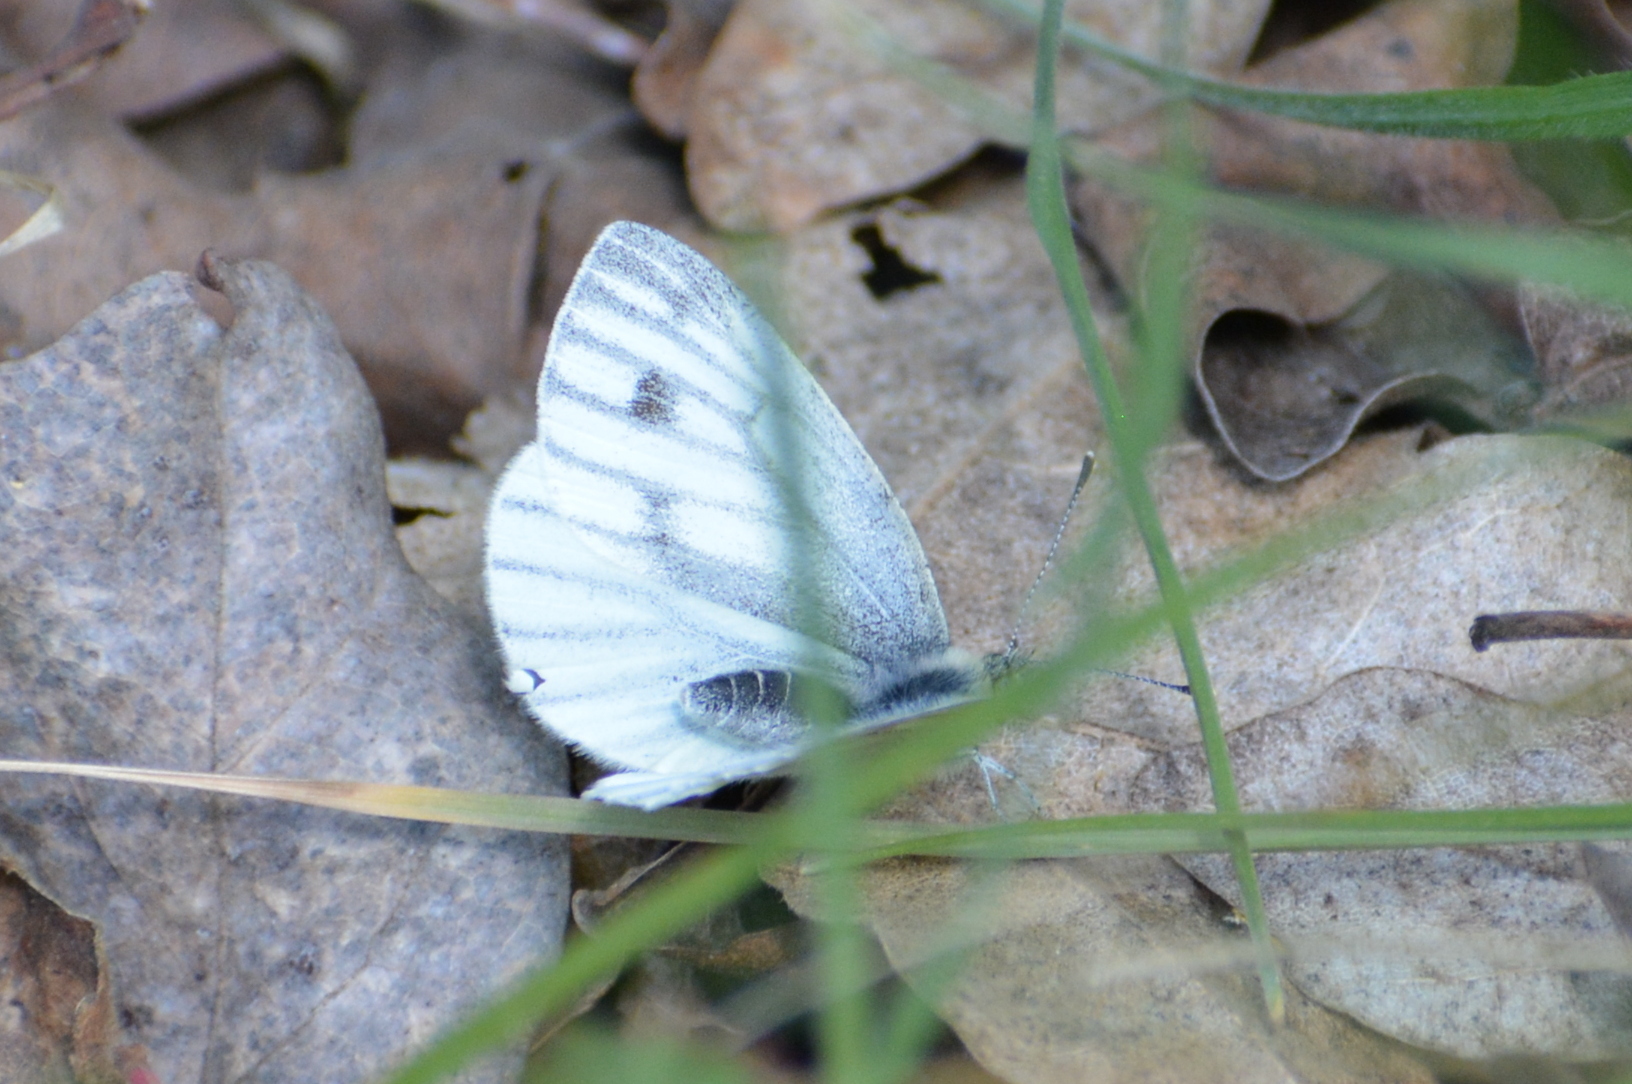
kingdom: Animalia
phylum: Arthropoda
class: Insecta
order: Lepidoptera
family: Pieridae
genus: Pieris
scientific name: Pieris napi
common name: Green-veined white
